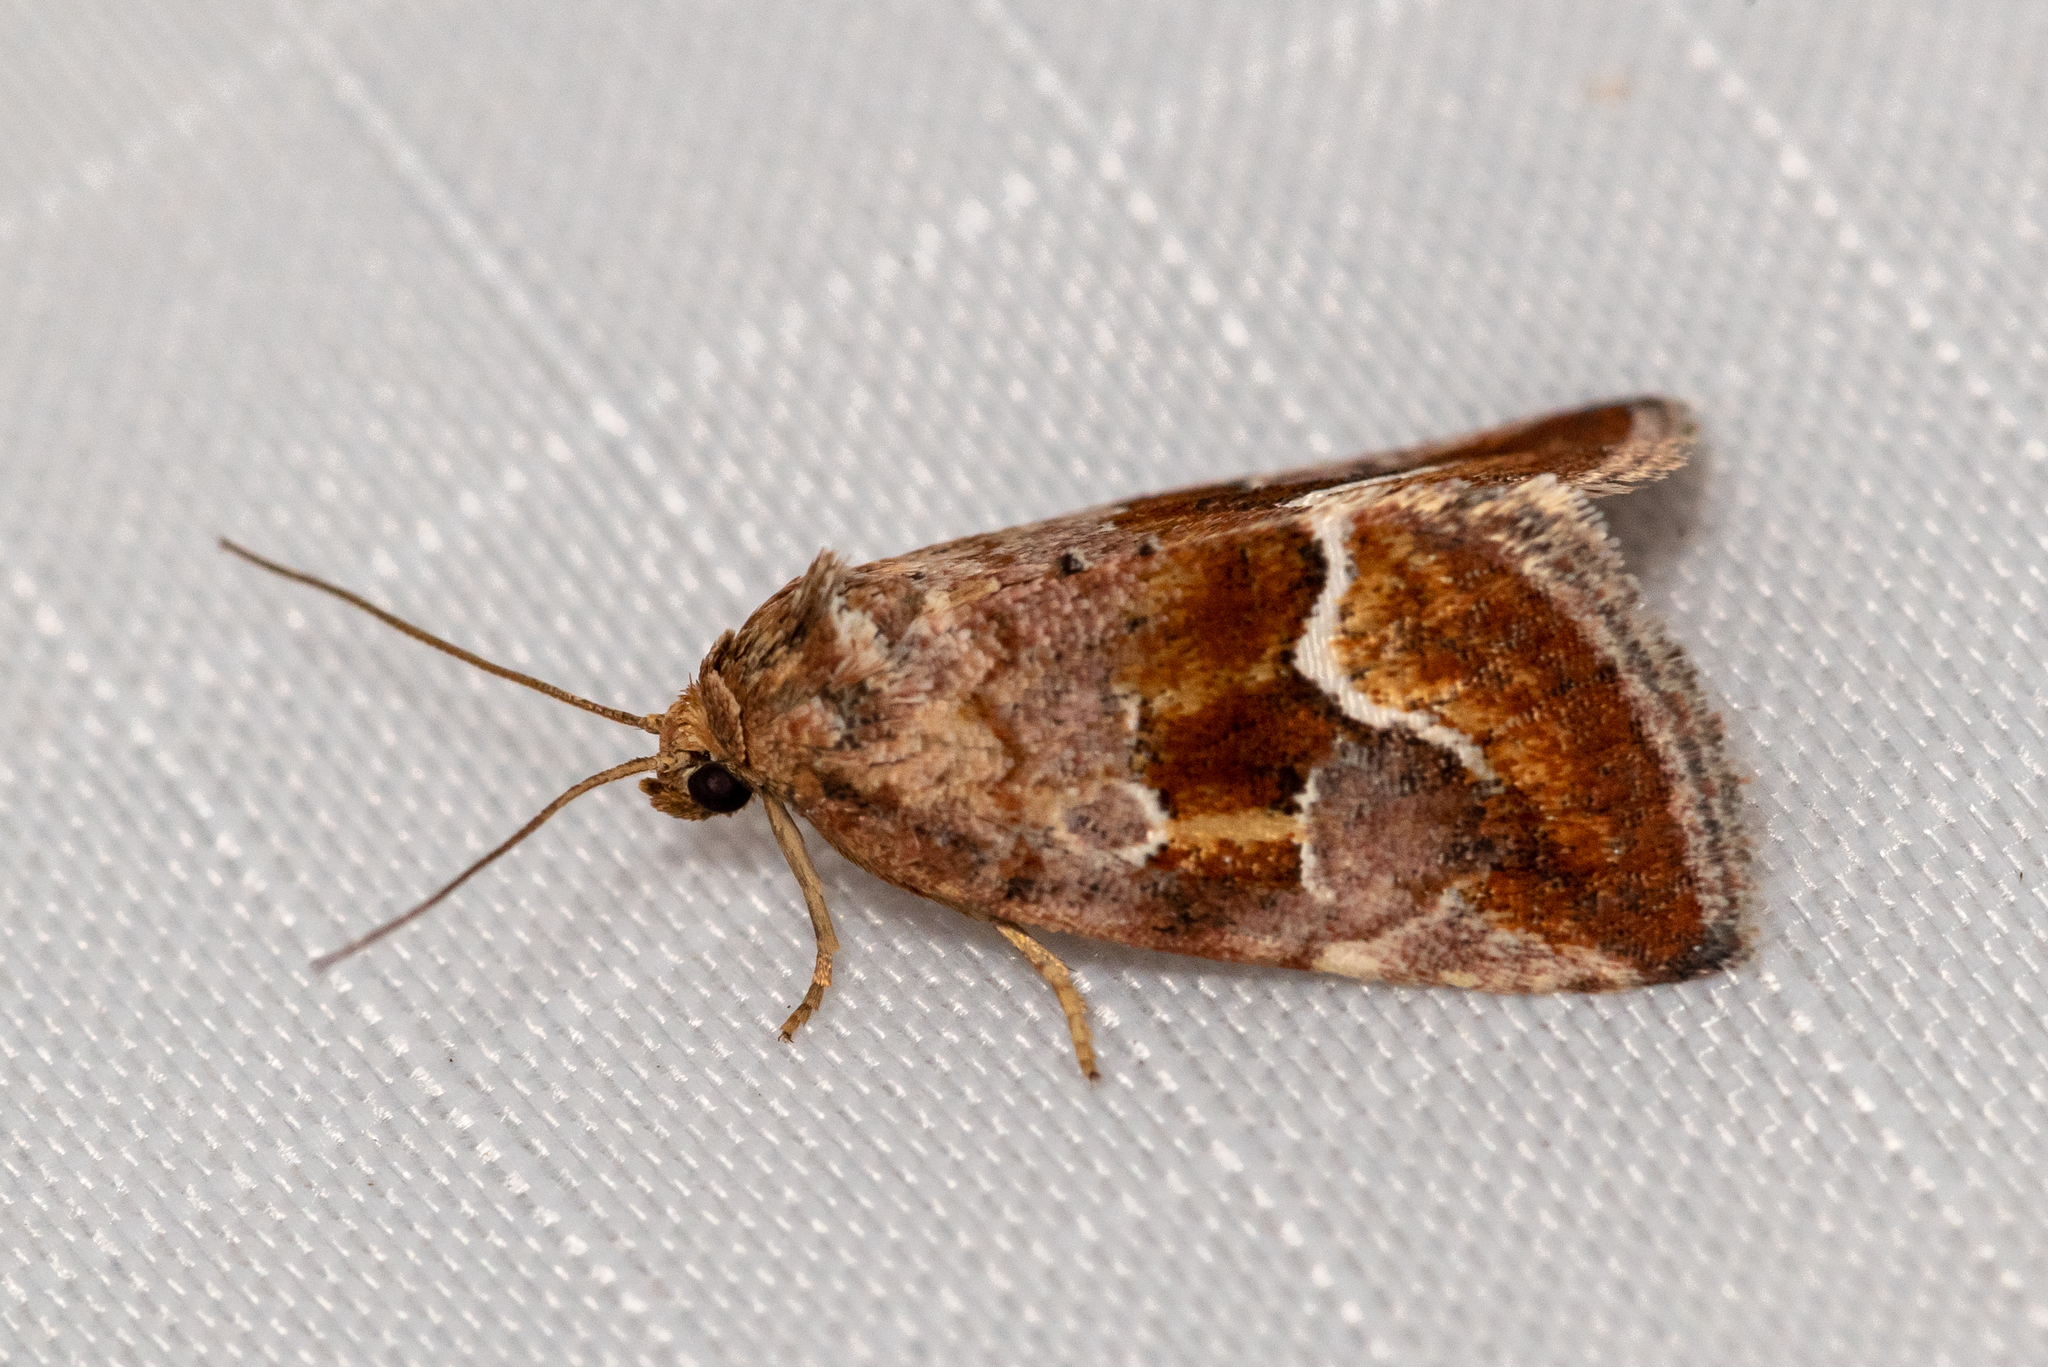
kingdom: Animalia
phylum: Arthropoda
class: Insecta
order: Lepidoptera
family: Noctuidae
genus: Deltote
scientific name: Deltote bellicula
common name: Bog glyph
